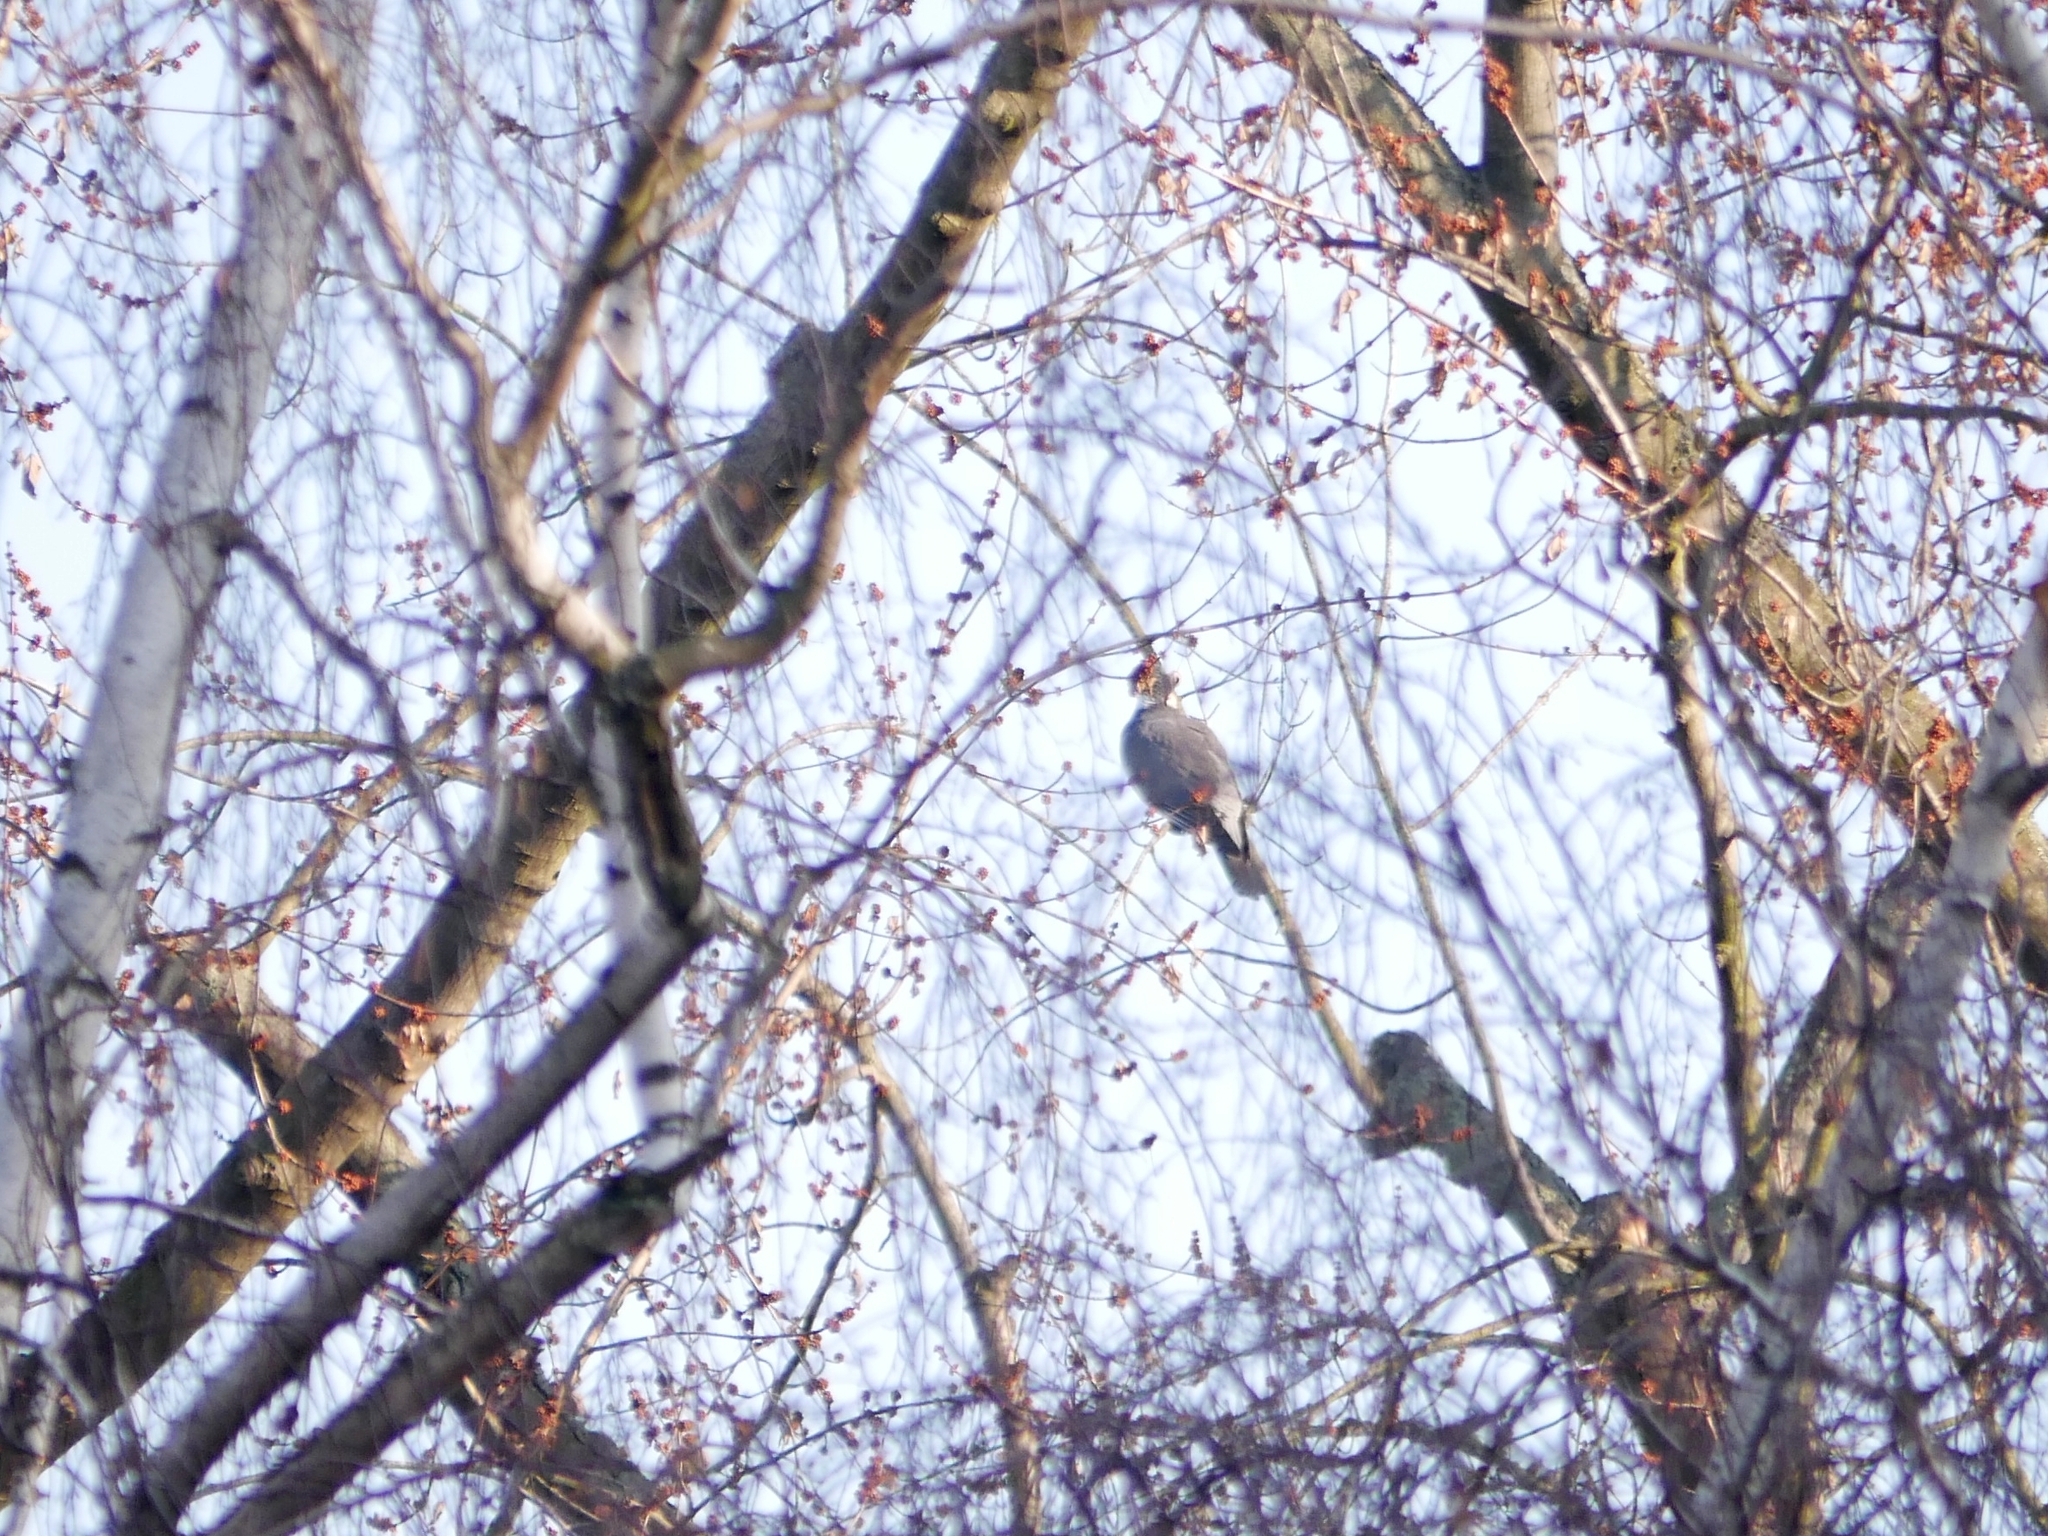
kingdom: Animalia
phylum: Chordata
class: Aves
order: Columbiformes
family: Columbidae
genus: Columba
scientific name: Columba palumbus
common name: Common wood pigeon
